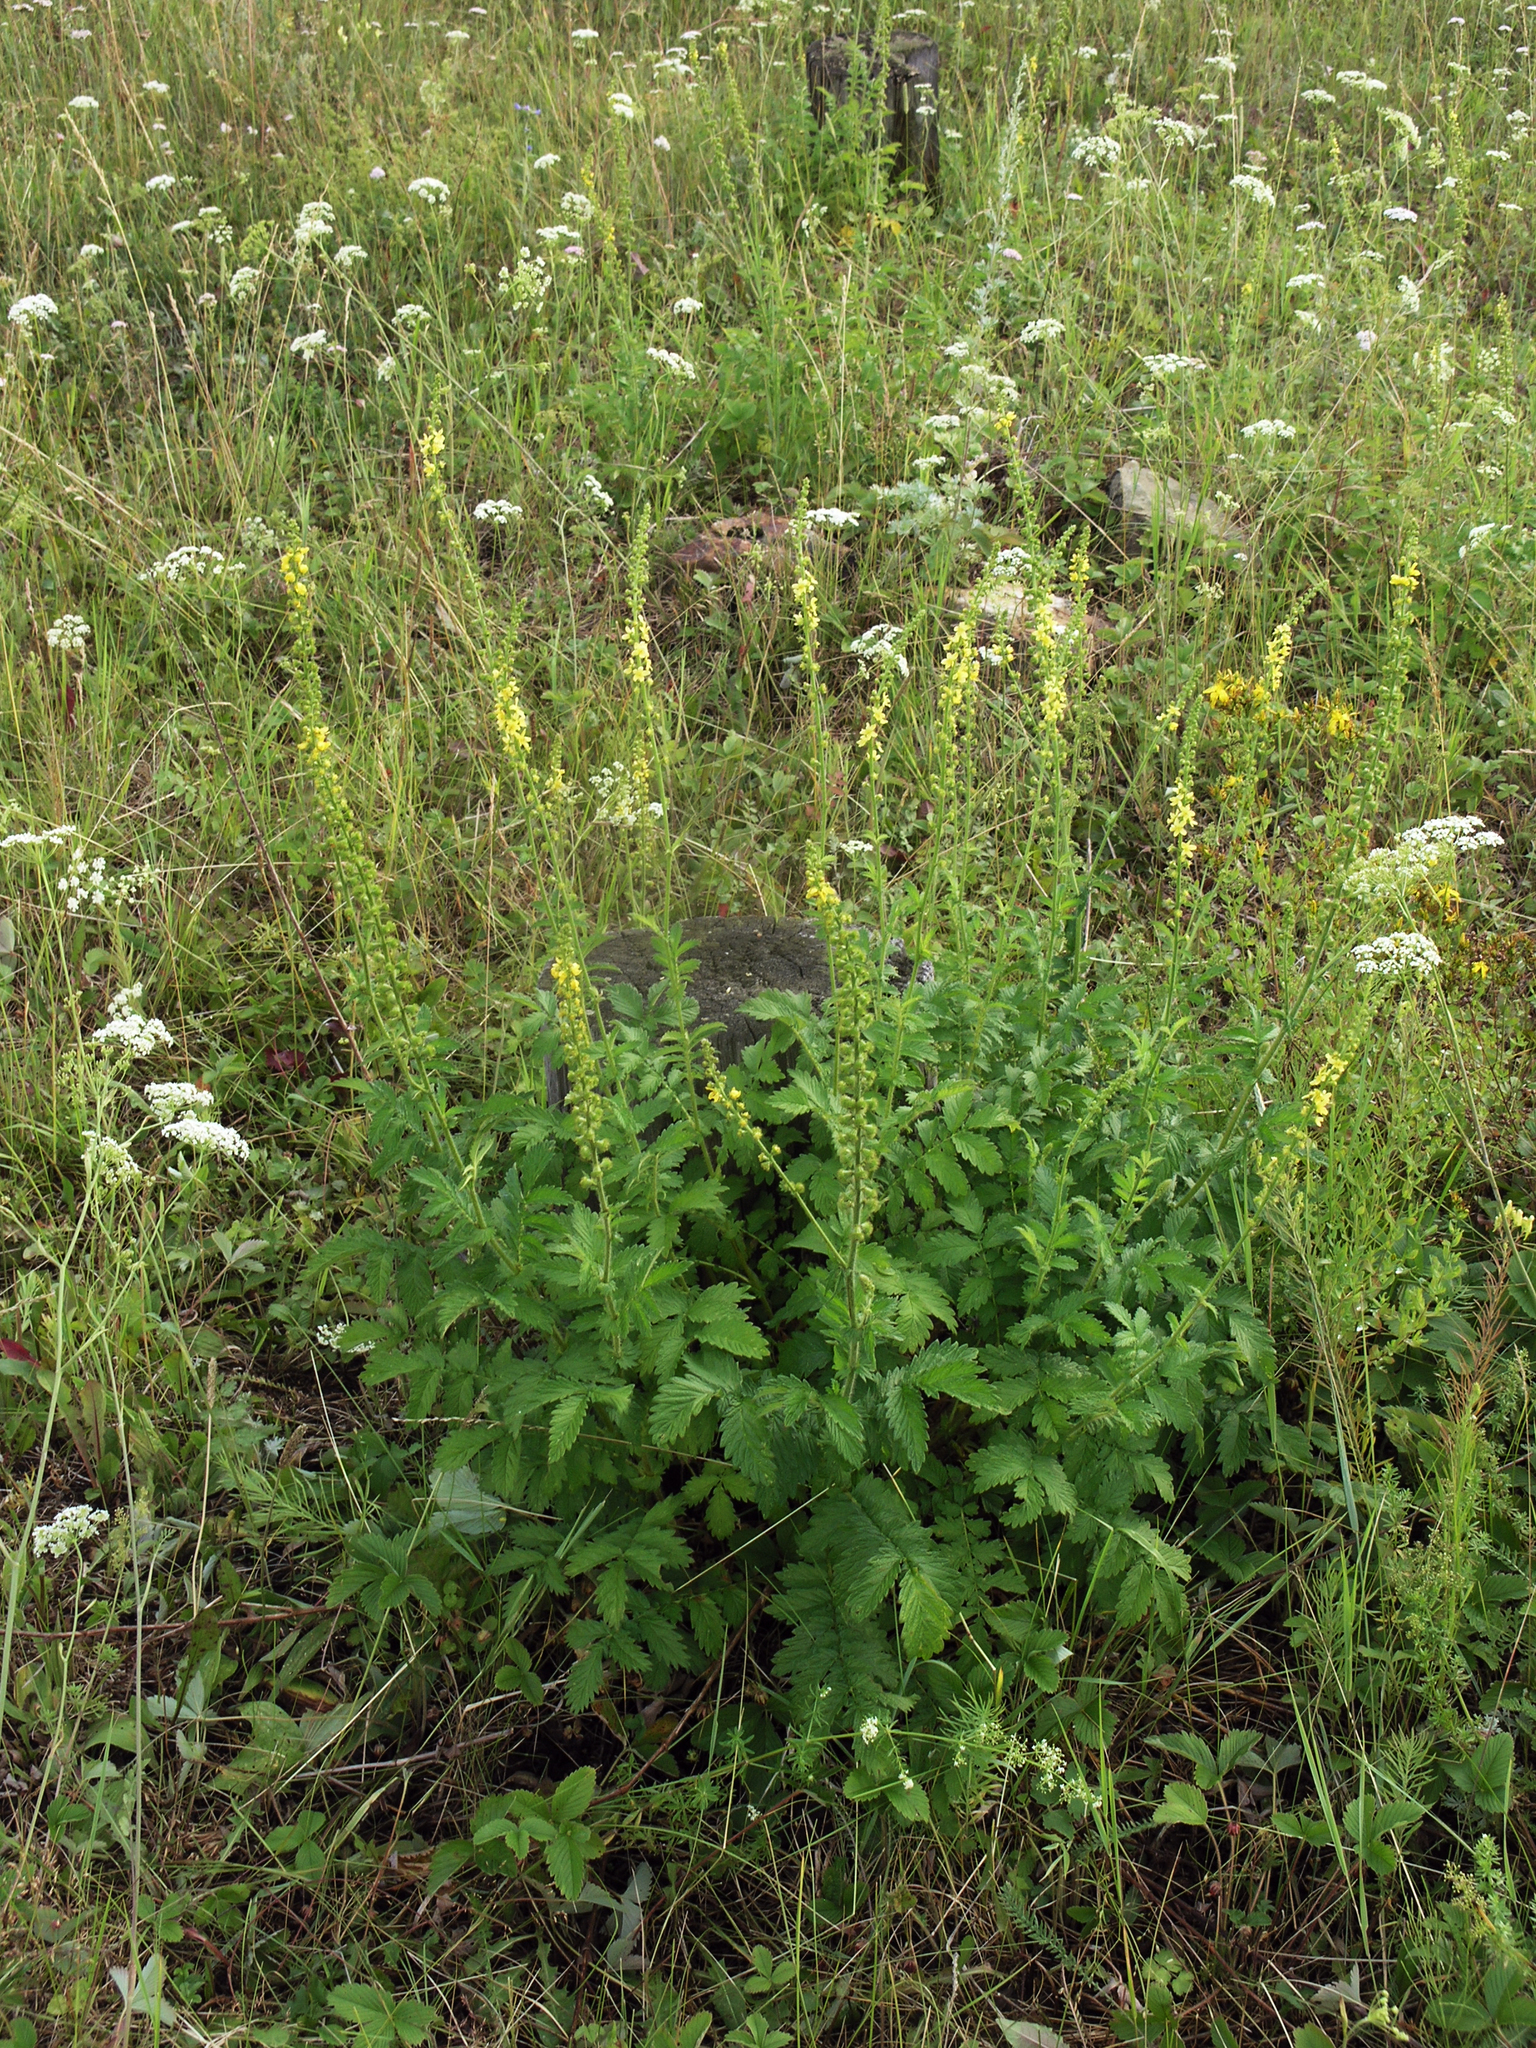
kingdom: Plantae
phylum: Tracheophyta
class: Magnoliopsida
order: Rosales
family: Rosaceae
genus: Agrimonia
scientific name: Agrimonia eupatoria
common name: Agrimony
